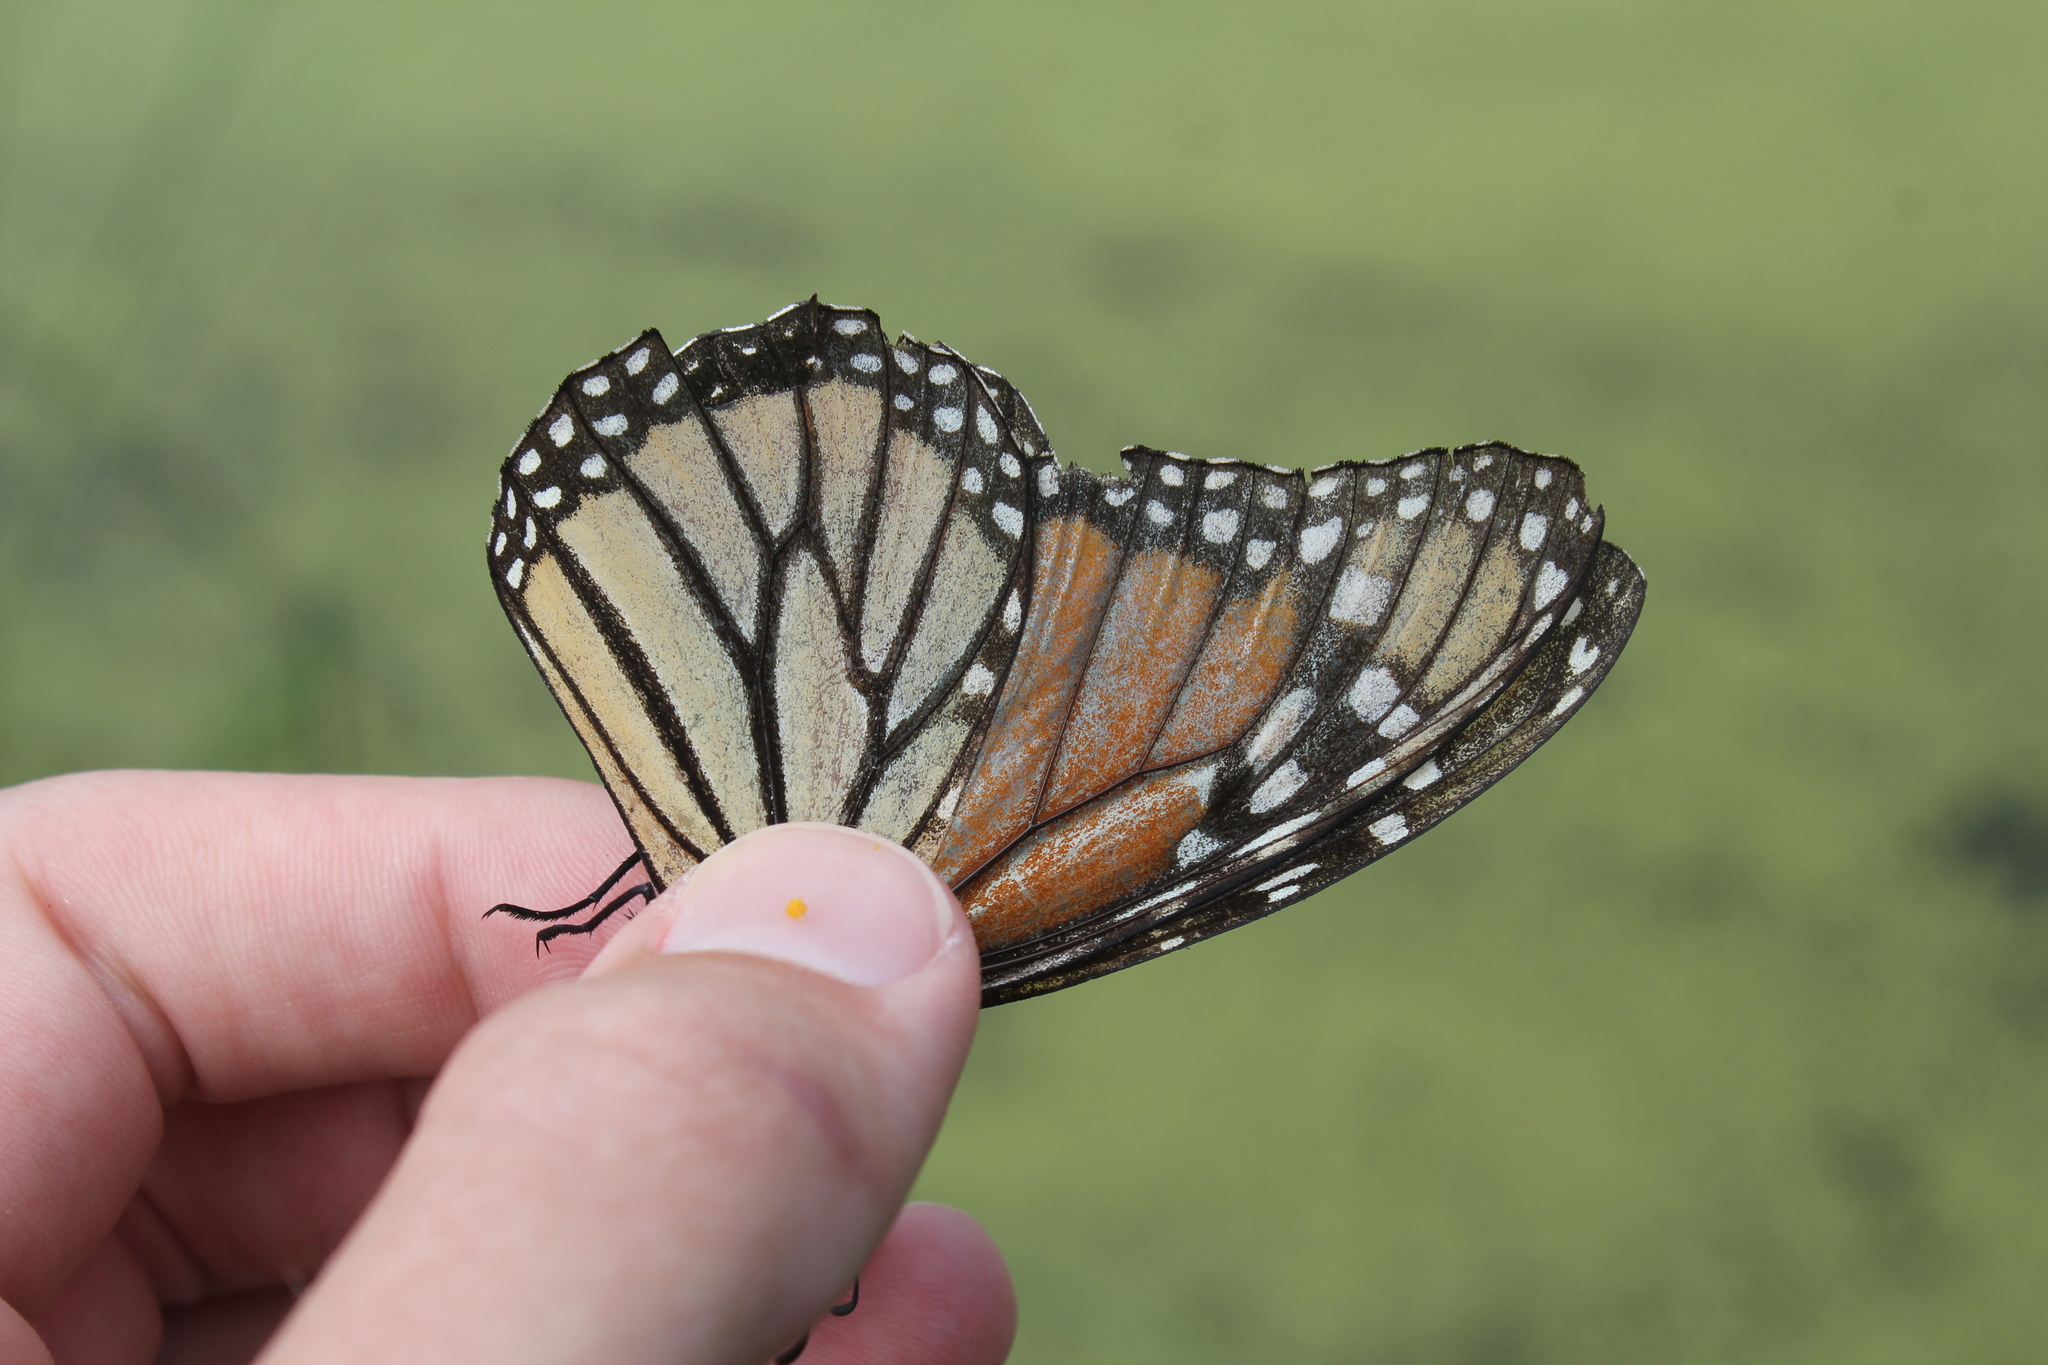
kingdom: Animalia
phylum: Arthropoda
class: Insecta
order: Lepidoptera
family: Nymphalidae
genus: Danaus
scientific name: Danaus plexippus
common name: Monarch
